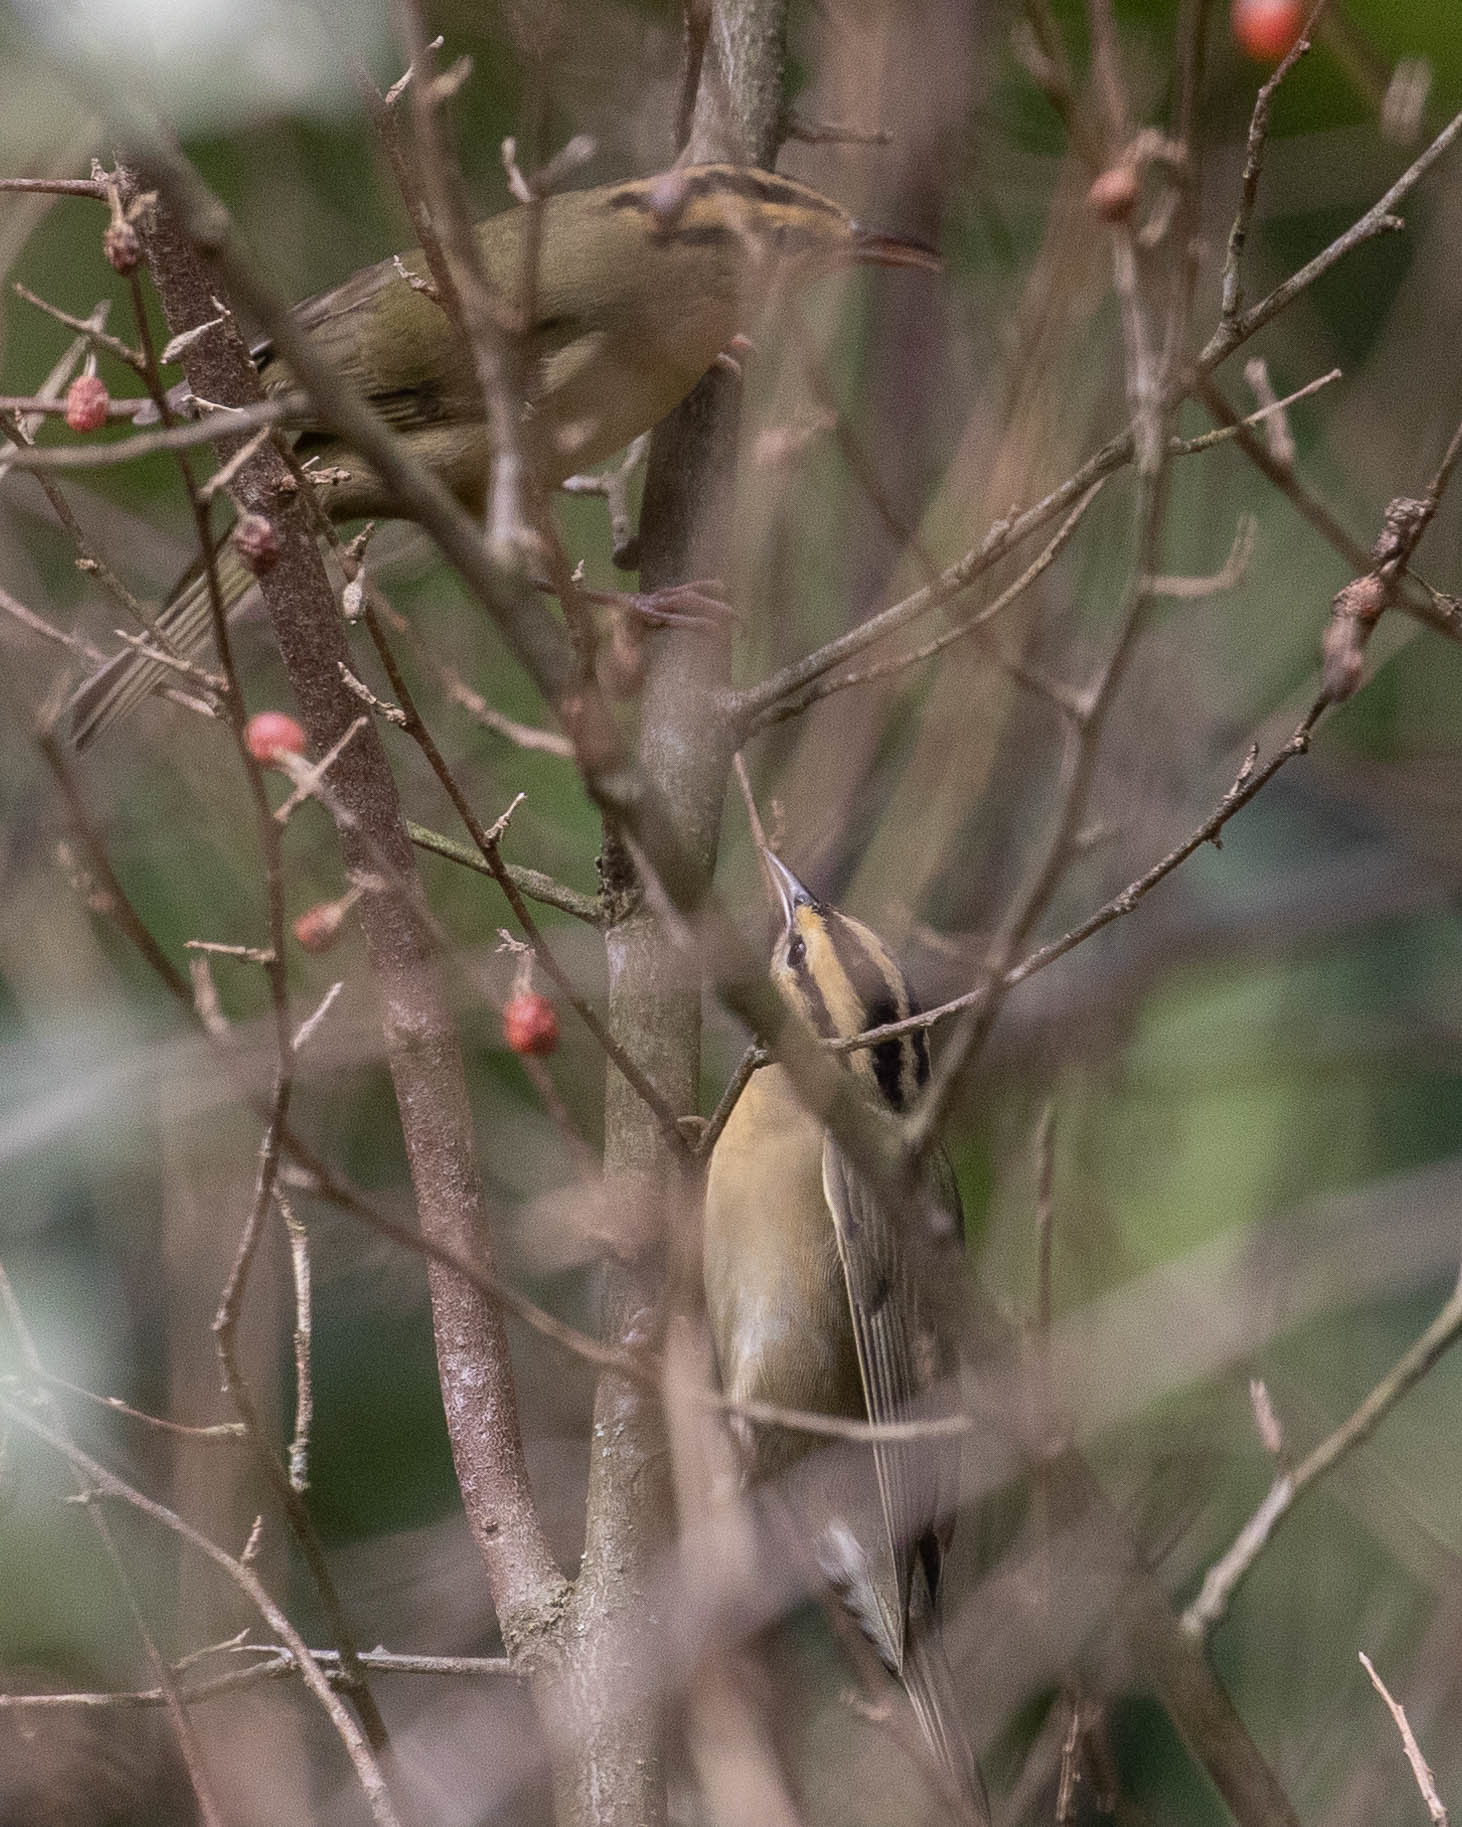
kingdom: Animalia
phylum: Chordata
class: Aves
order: Passeriformes
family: Parulidae
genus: Helmitheros
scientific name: Helmitheros vermivorum
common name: Worm-eating warbler
